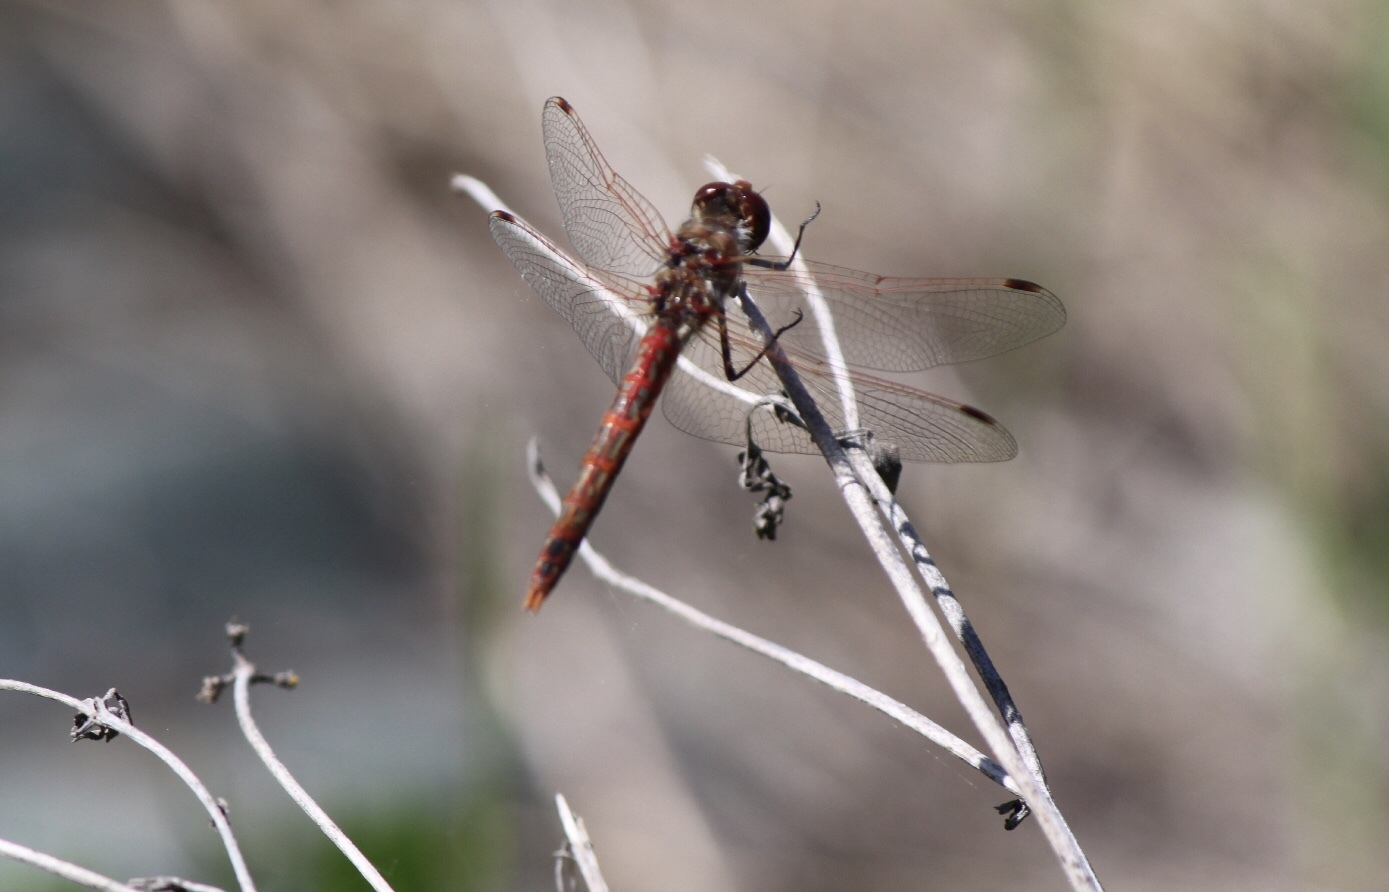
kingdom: Animalia
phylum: Arthropoda
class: Insecta
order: Odonata
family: Libellulidae
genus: Sympetrum
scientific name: Sympetrum corruptum
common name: Variegated meadowhawk
